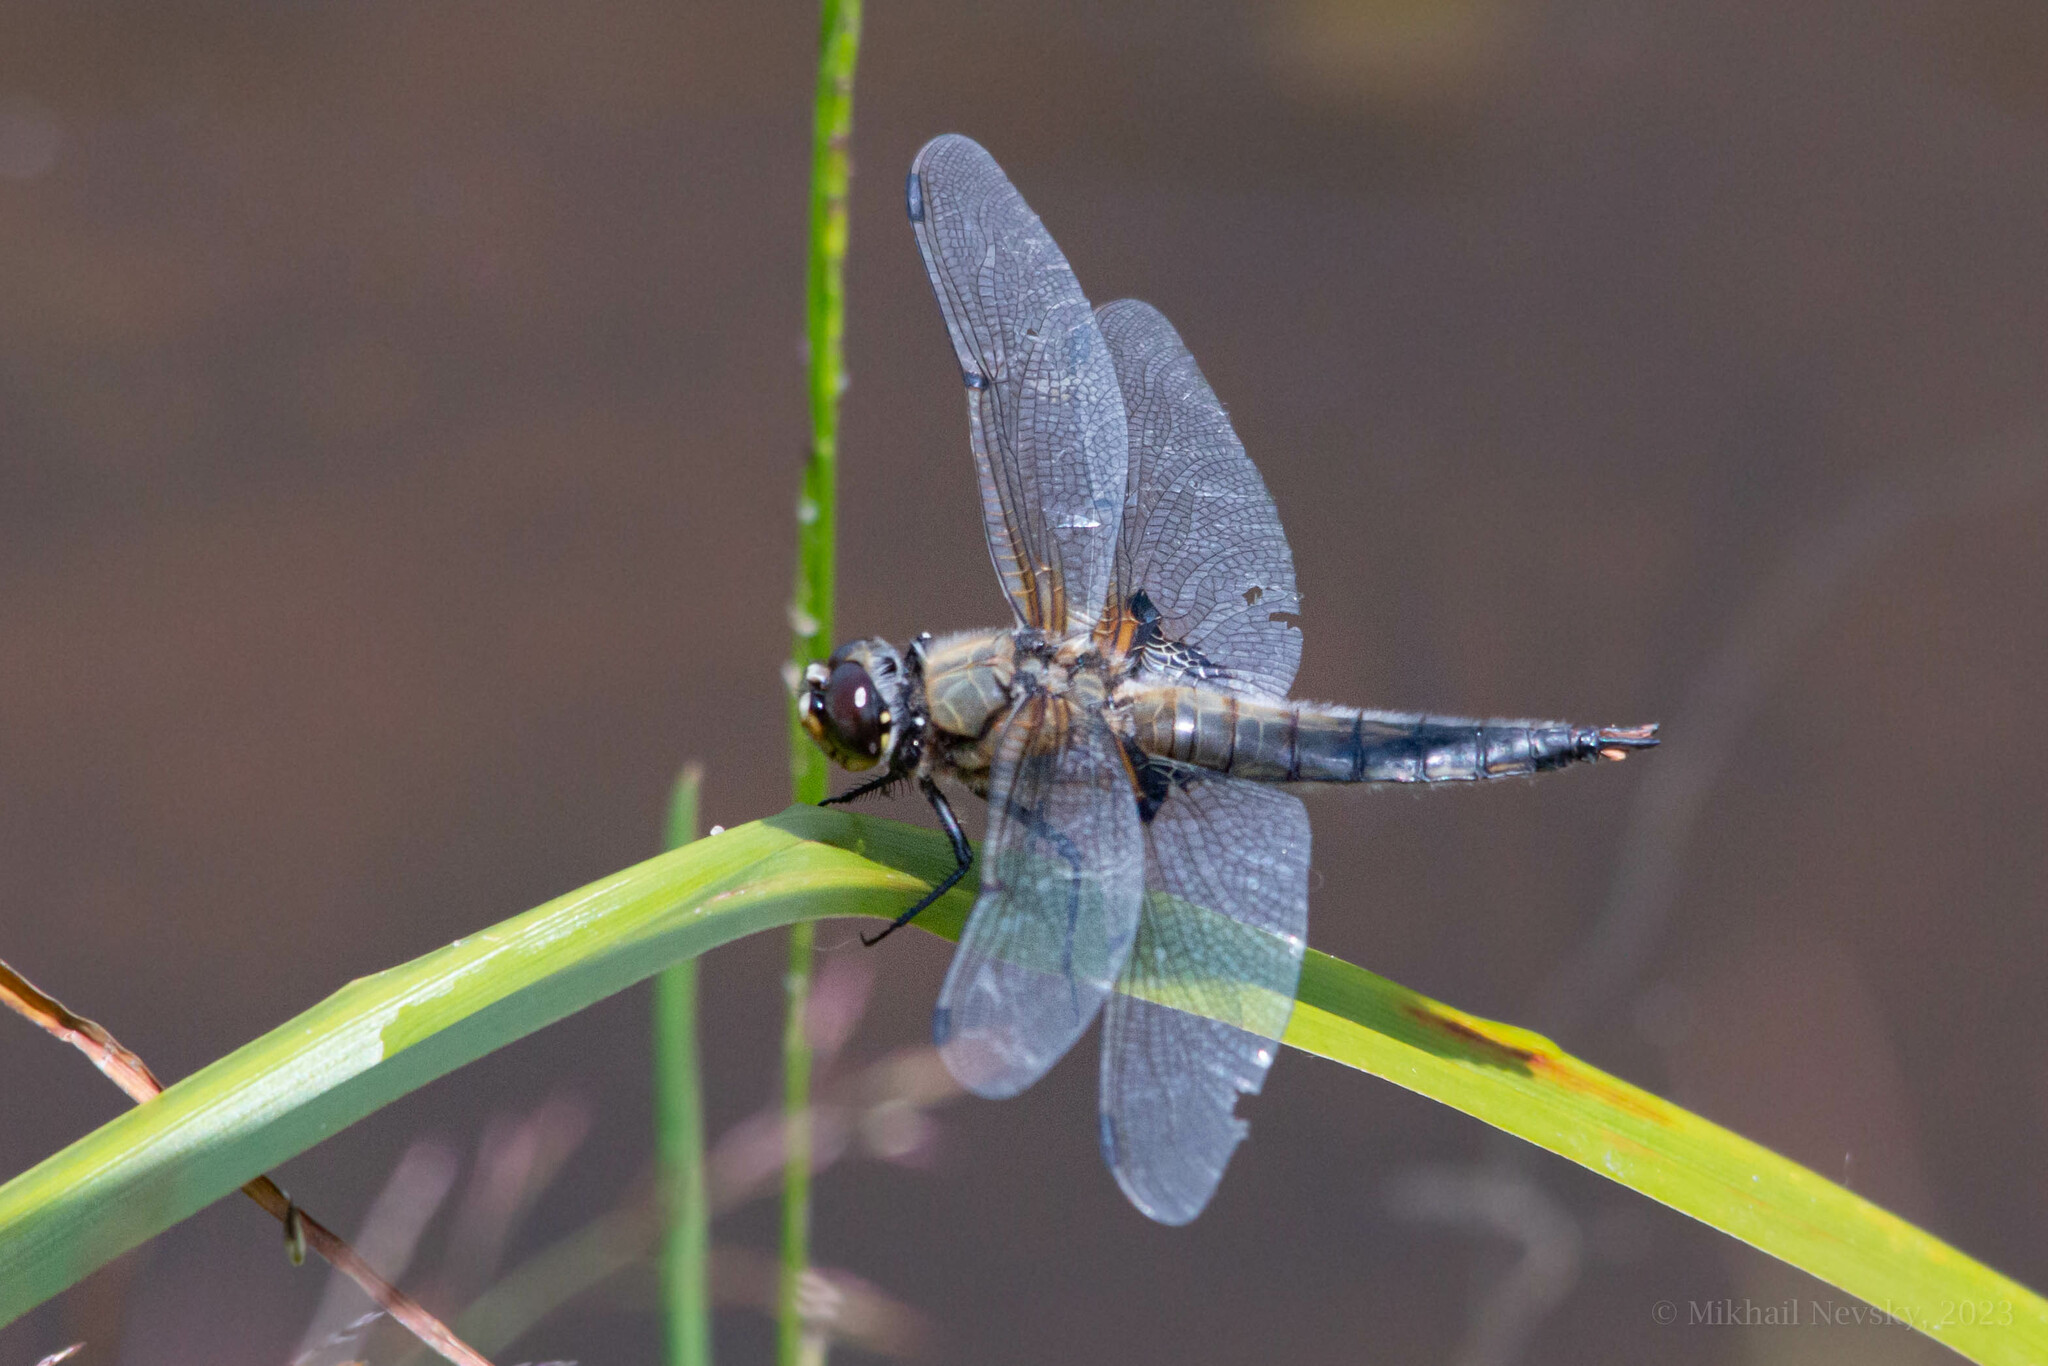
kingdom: Animalia
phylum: Arthropoda
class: Insecta
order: Odonata
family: Libellulidae
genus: Libellula
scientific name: Libellula quadrimaculata
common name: Four-spotted chaser
